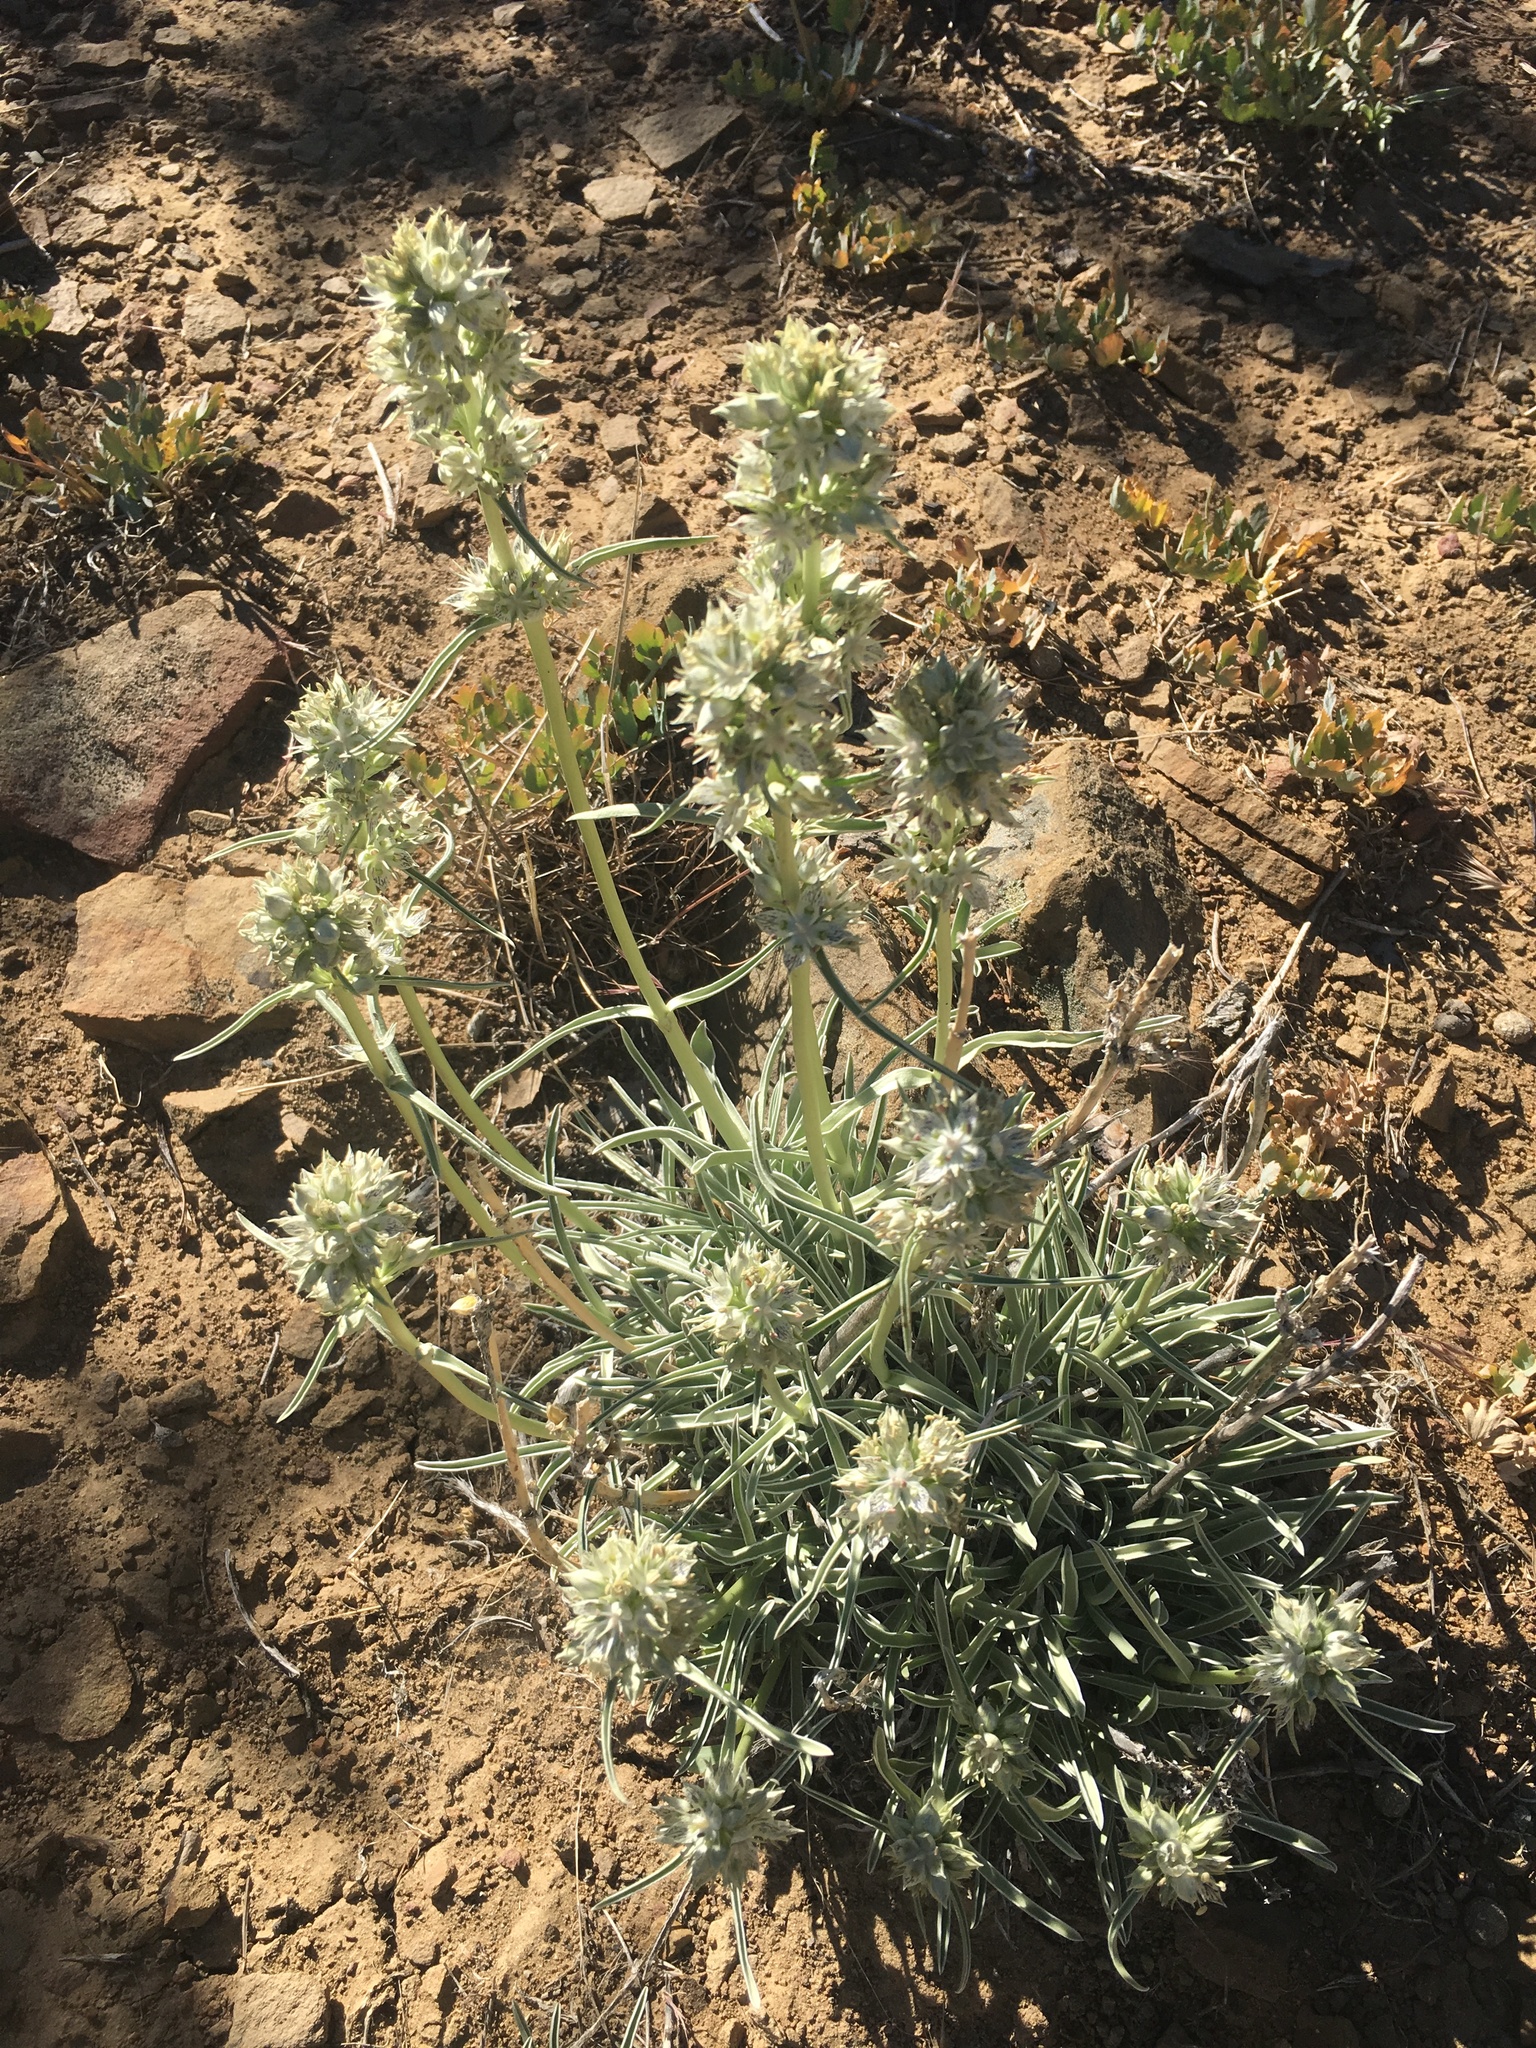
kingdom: Plantae
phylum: Tracheophyta
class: Magnoliopsida
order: Gentianales
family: Gentianaceae
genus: Frasera
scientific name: Frasera neglecta
